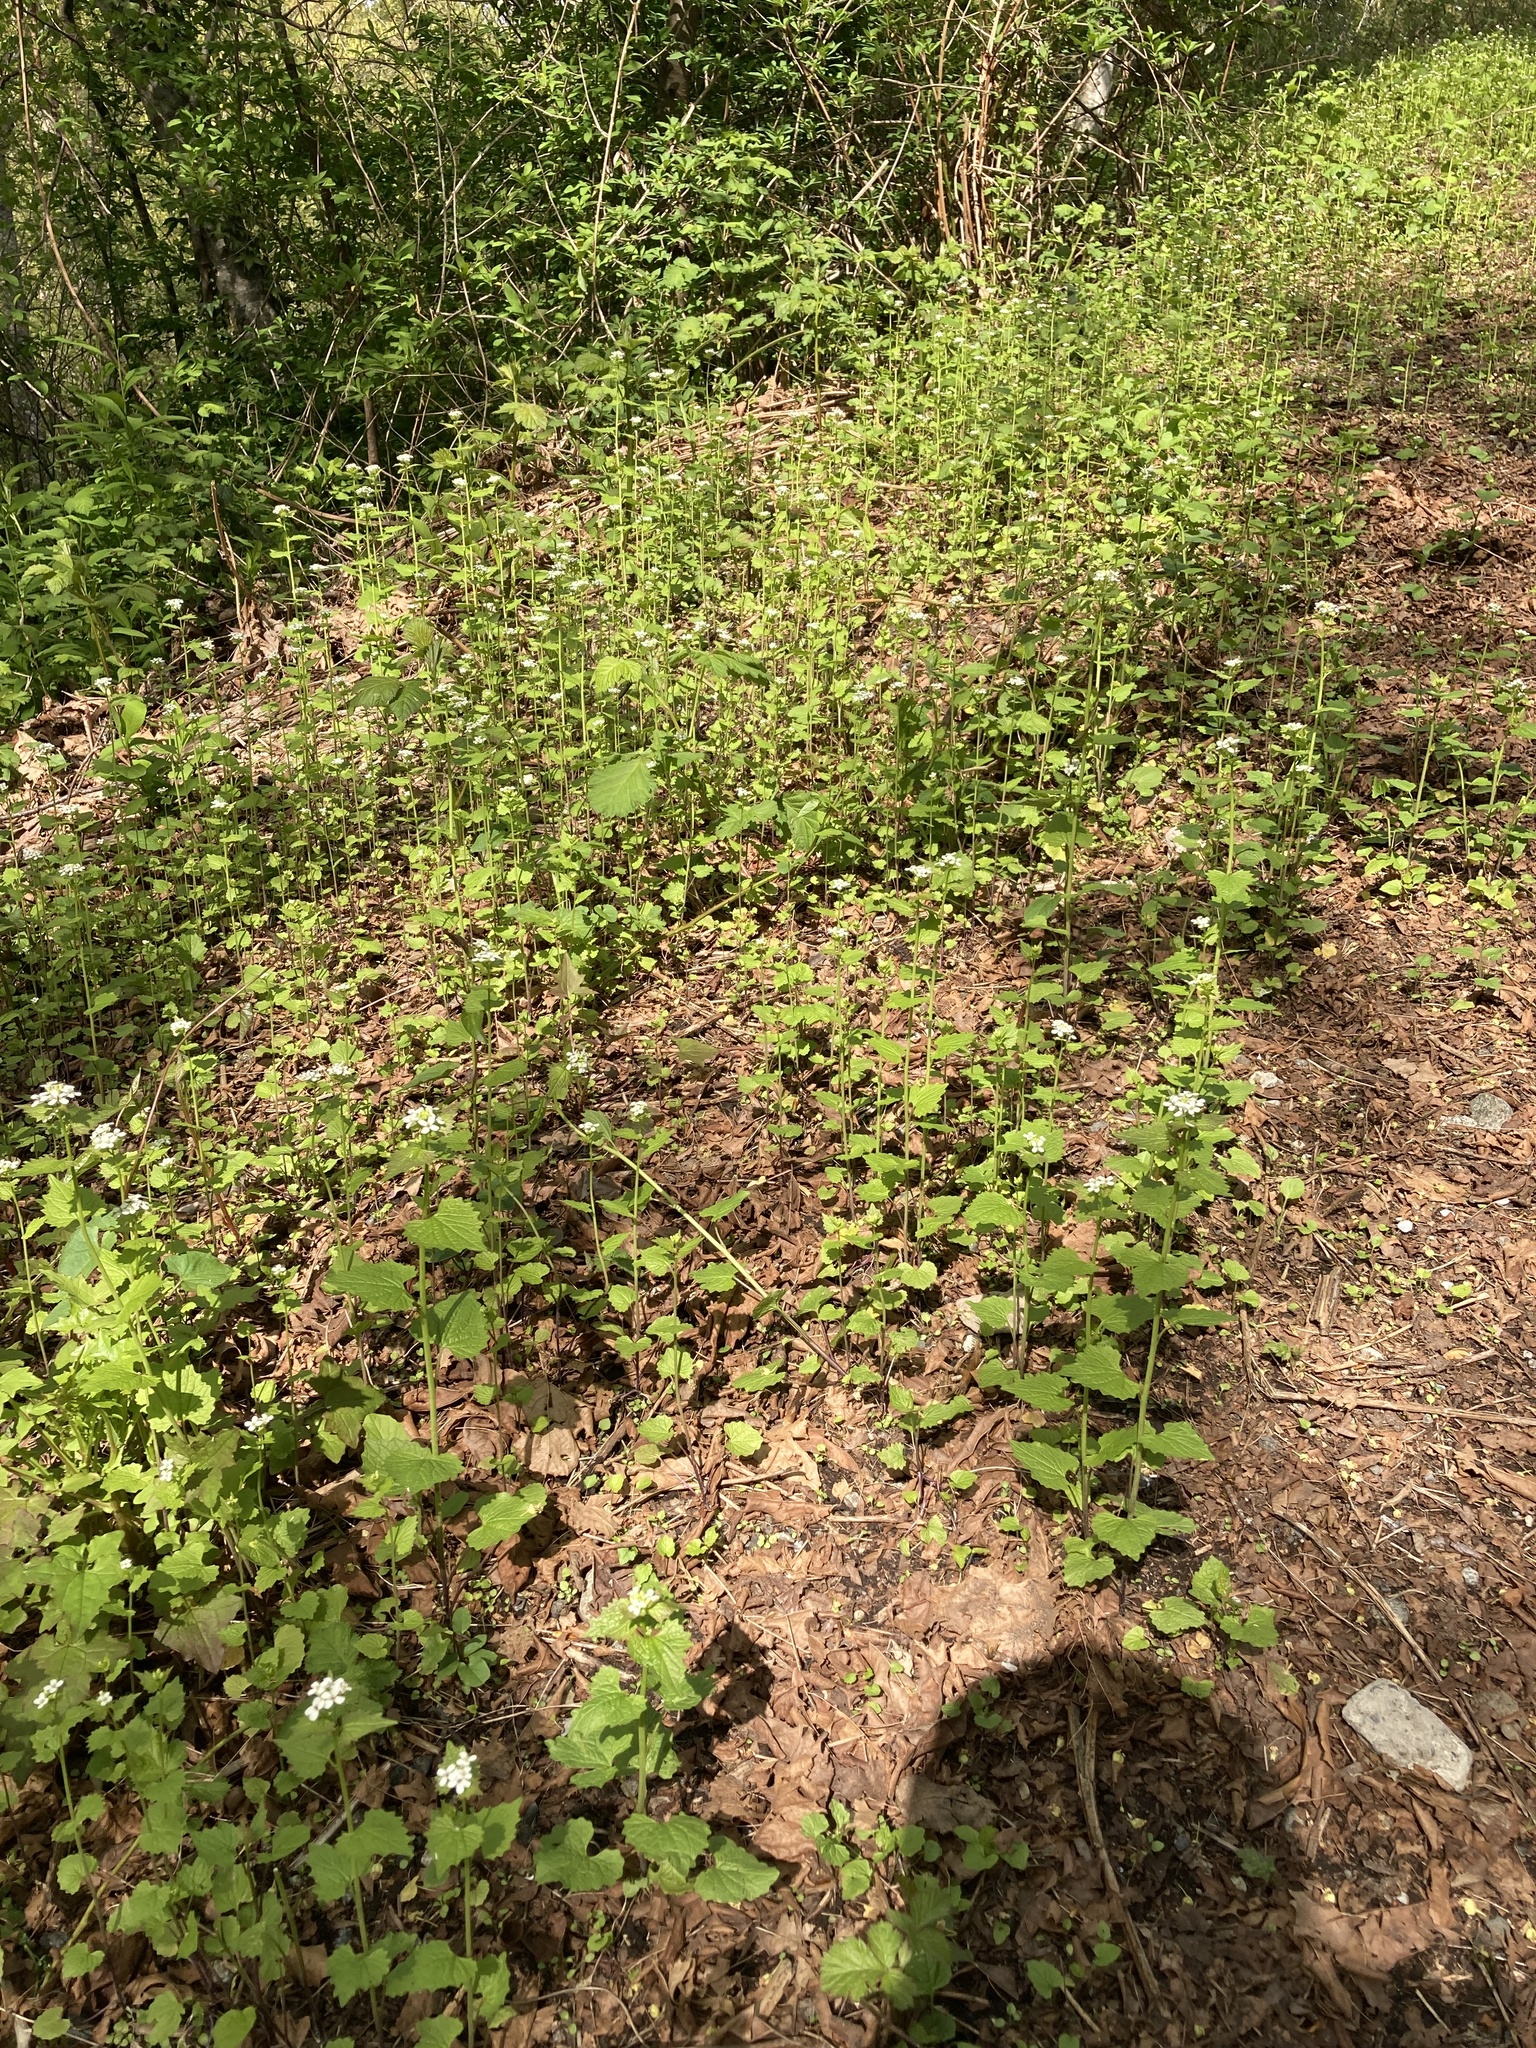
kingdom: Plantae
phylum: Tracheophyta
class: Magnoliopsida
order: Brassicales
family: Brassicaceae
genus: Alliaria
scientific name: Alliaria petiolata
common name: Garlic mustard
